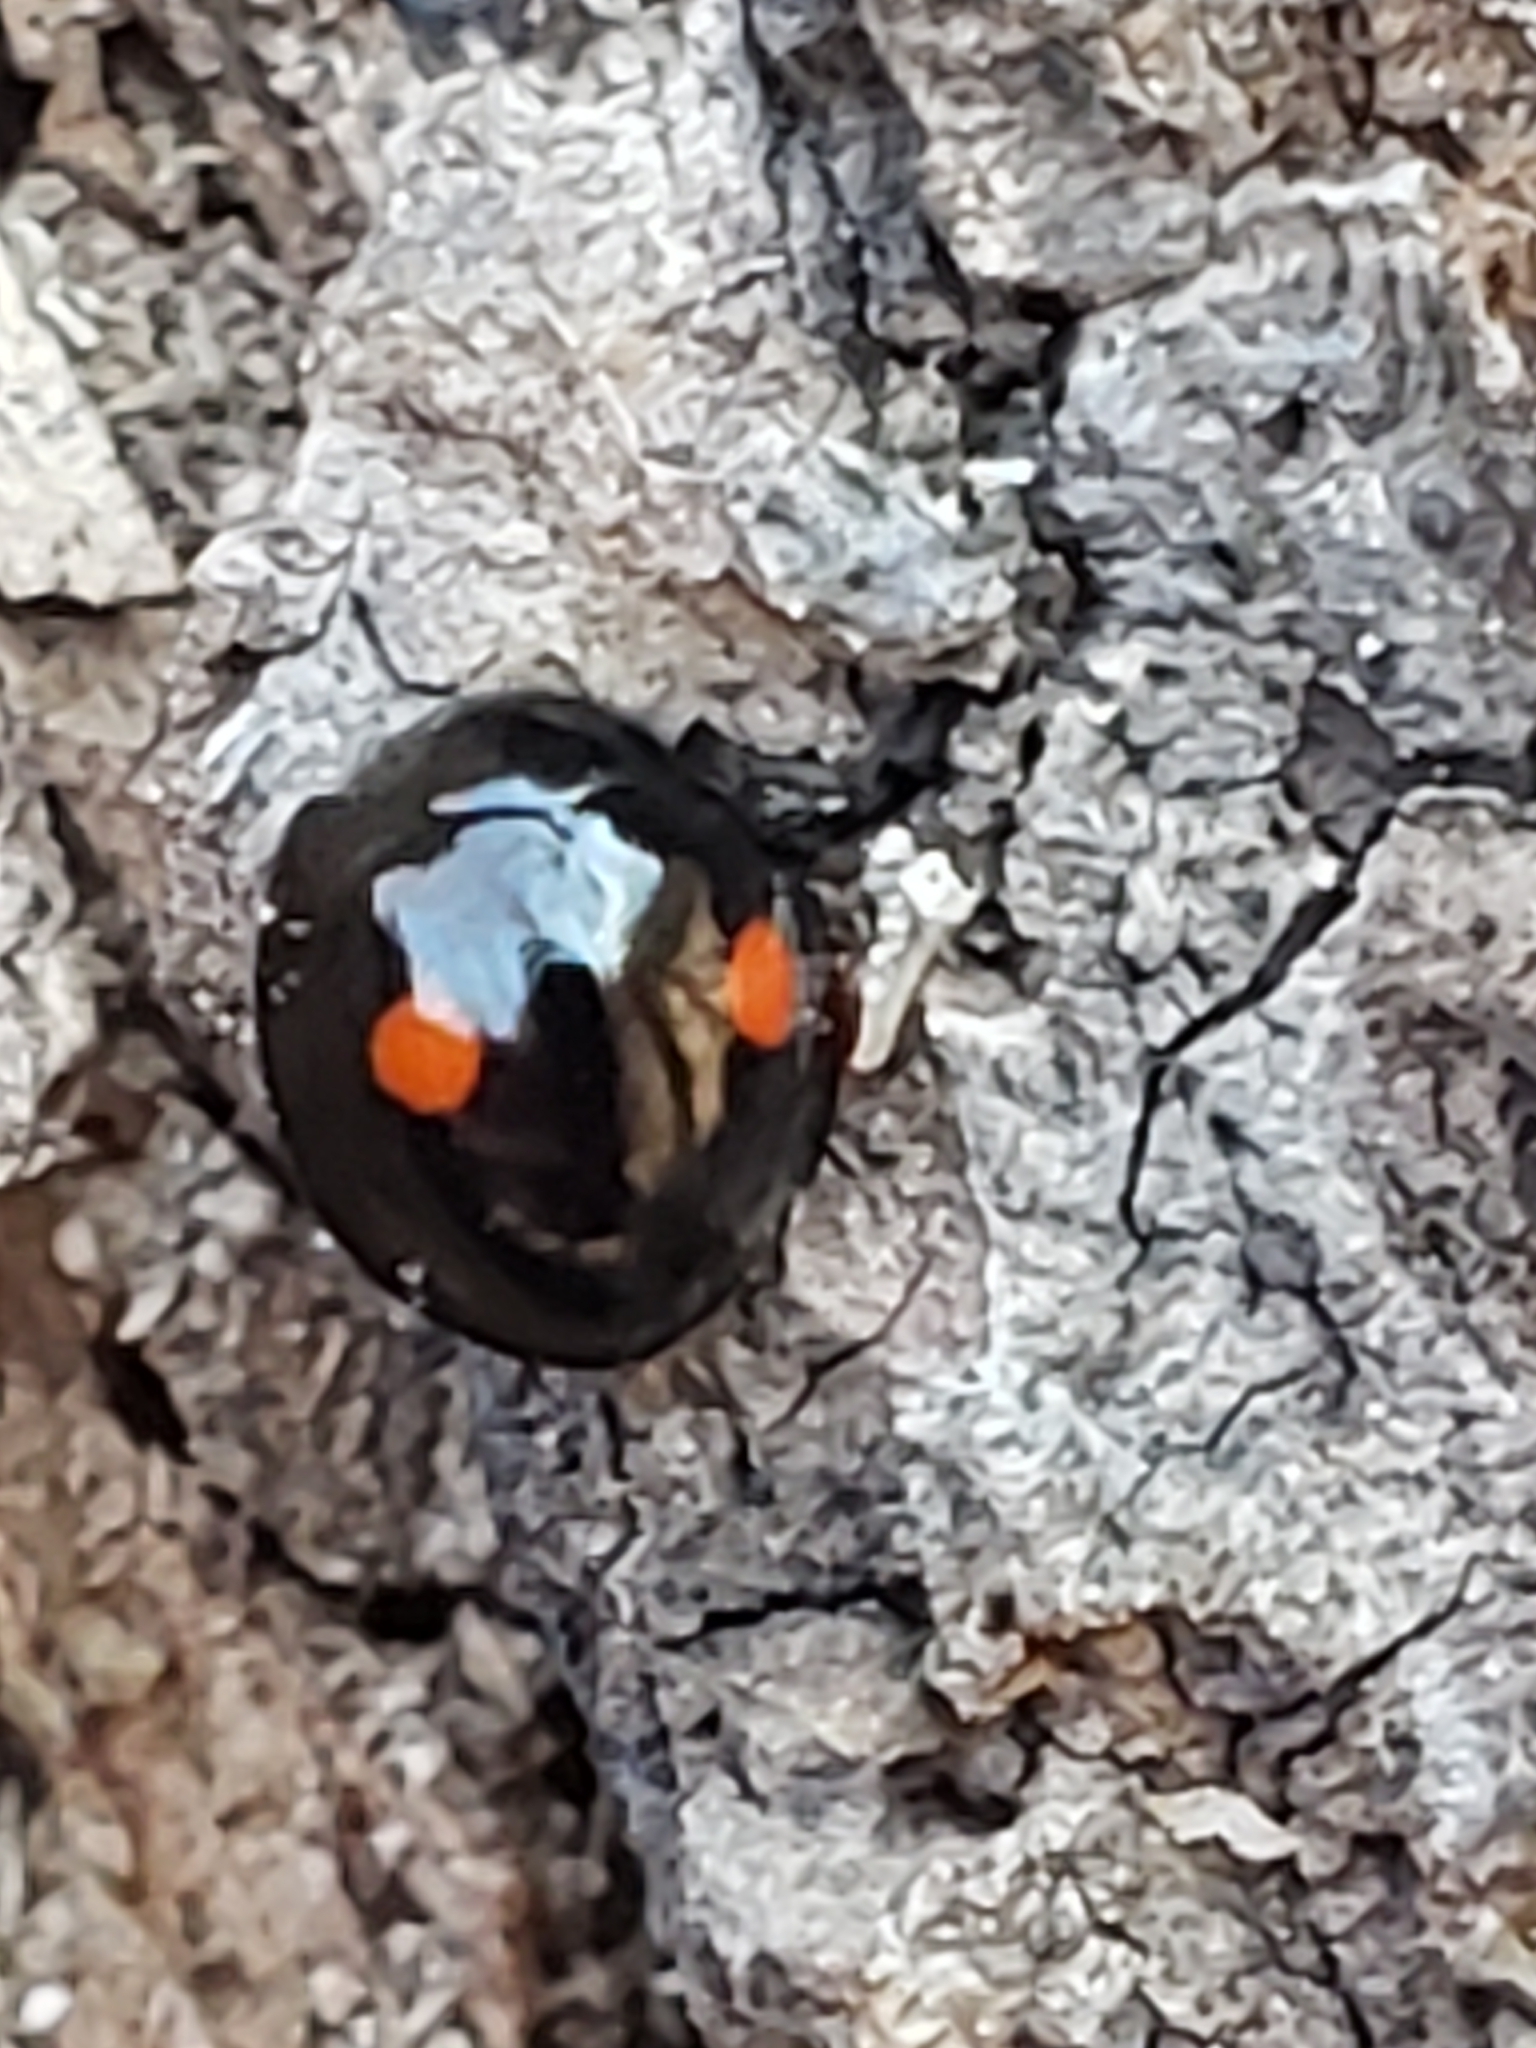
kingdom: Animalia
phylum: Arthropoda
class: Insecta
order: Coleoptera
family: Coccinellidae
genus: Chilocorus
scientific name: Chilocorus stigma
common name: Twicestabbed lady beetle
